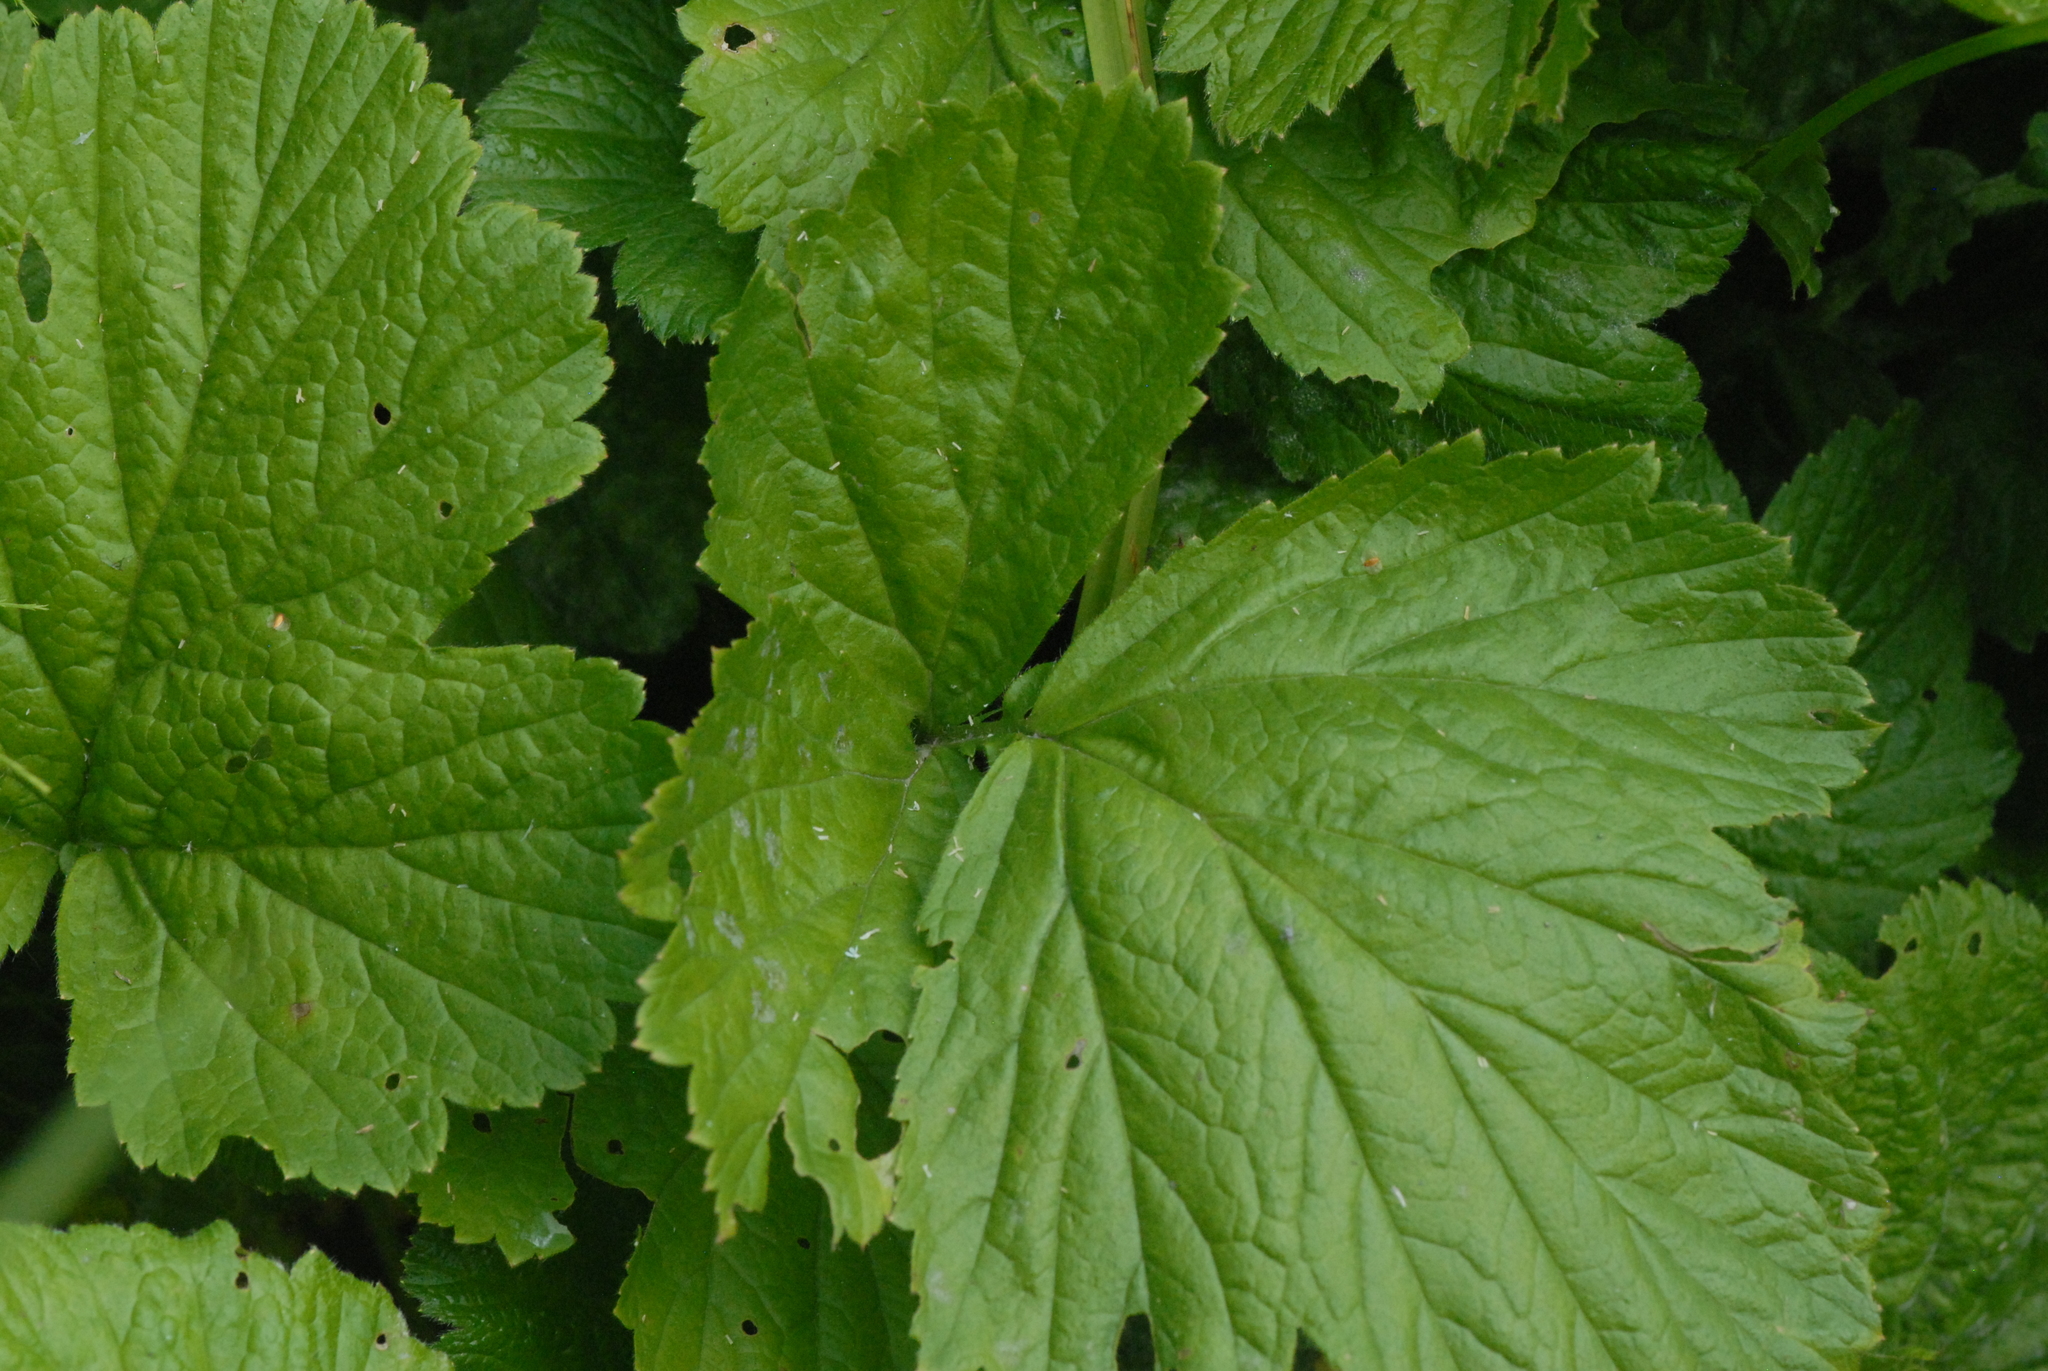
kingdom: Plantae
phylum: Tracheophyta
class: Magnoliopsida
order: Rosales
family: Rosaceae
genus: Geum
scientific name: Geum rivale
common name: Water avens
